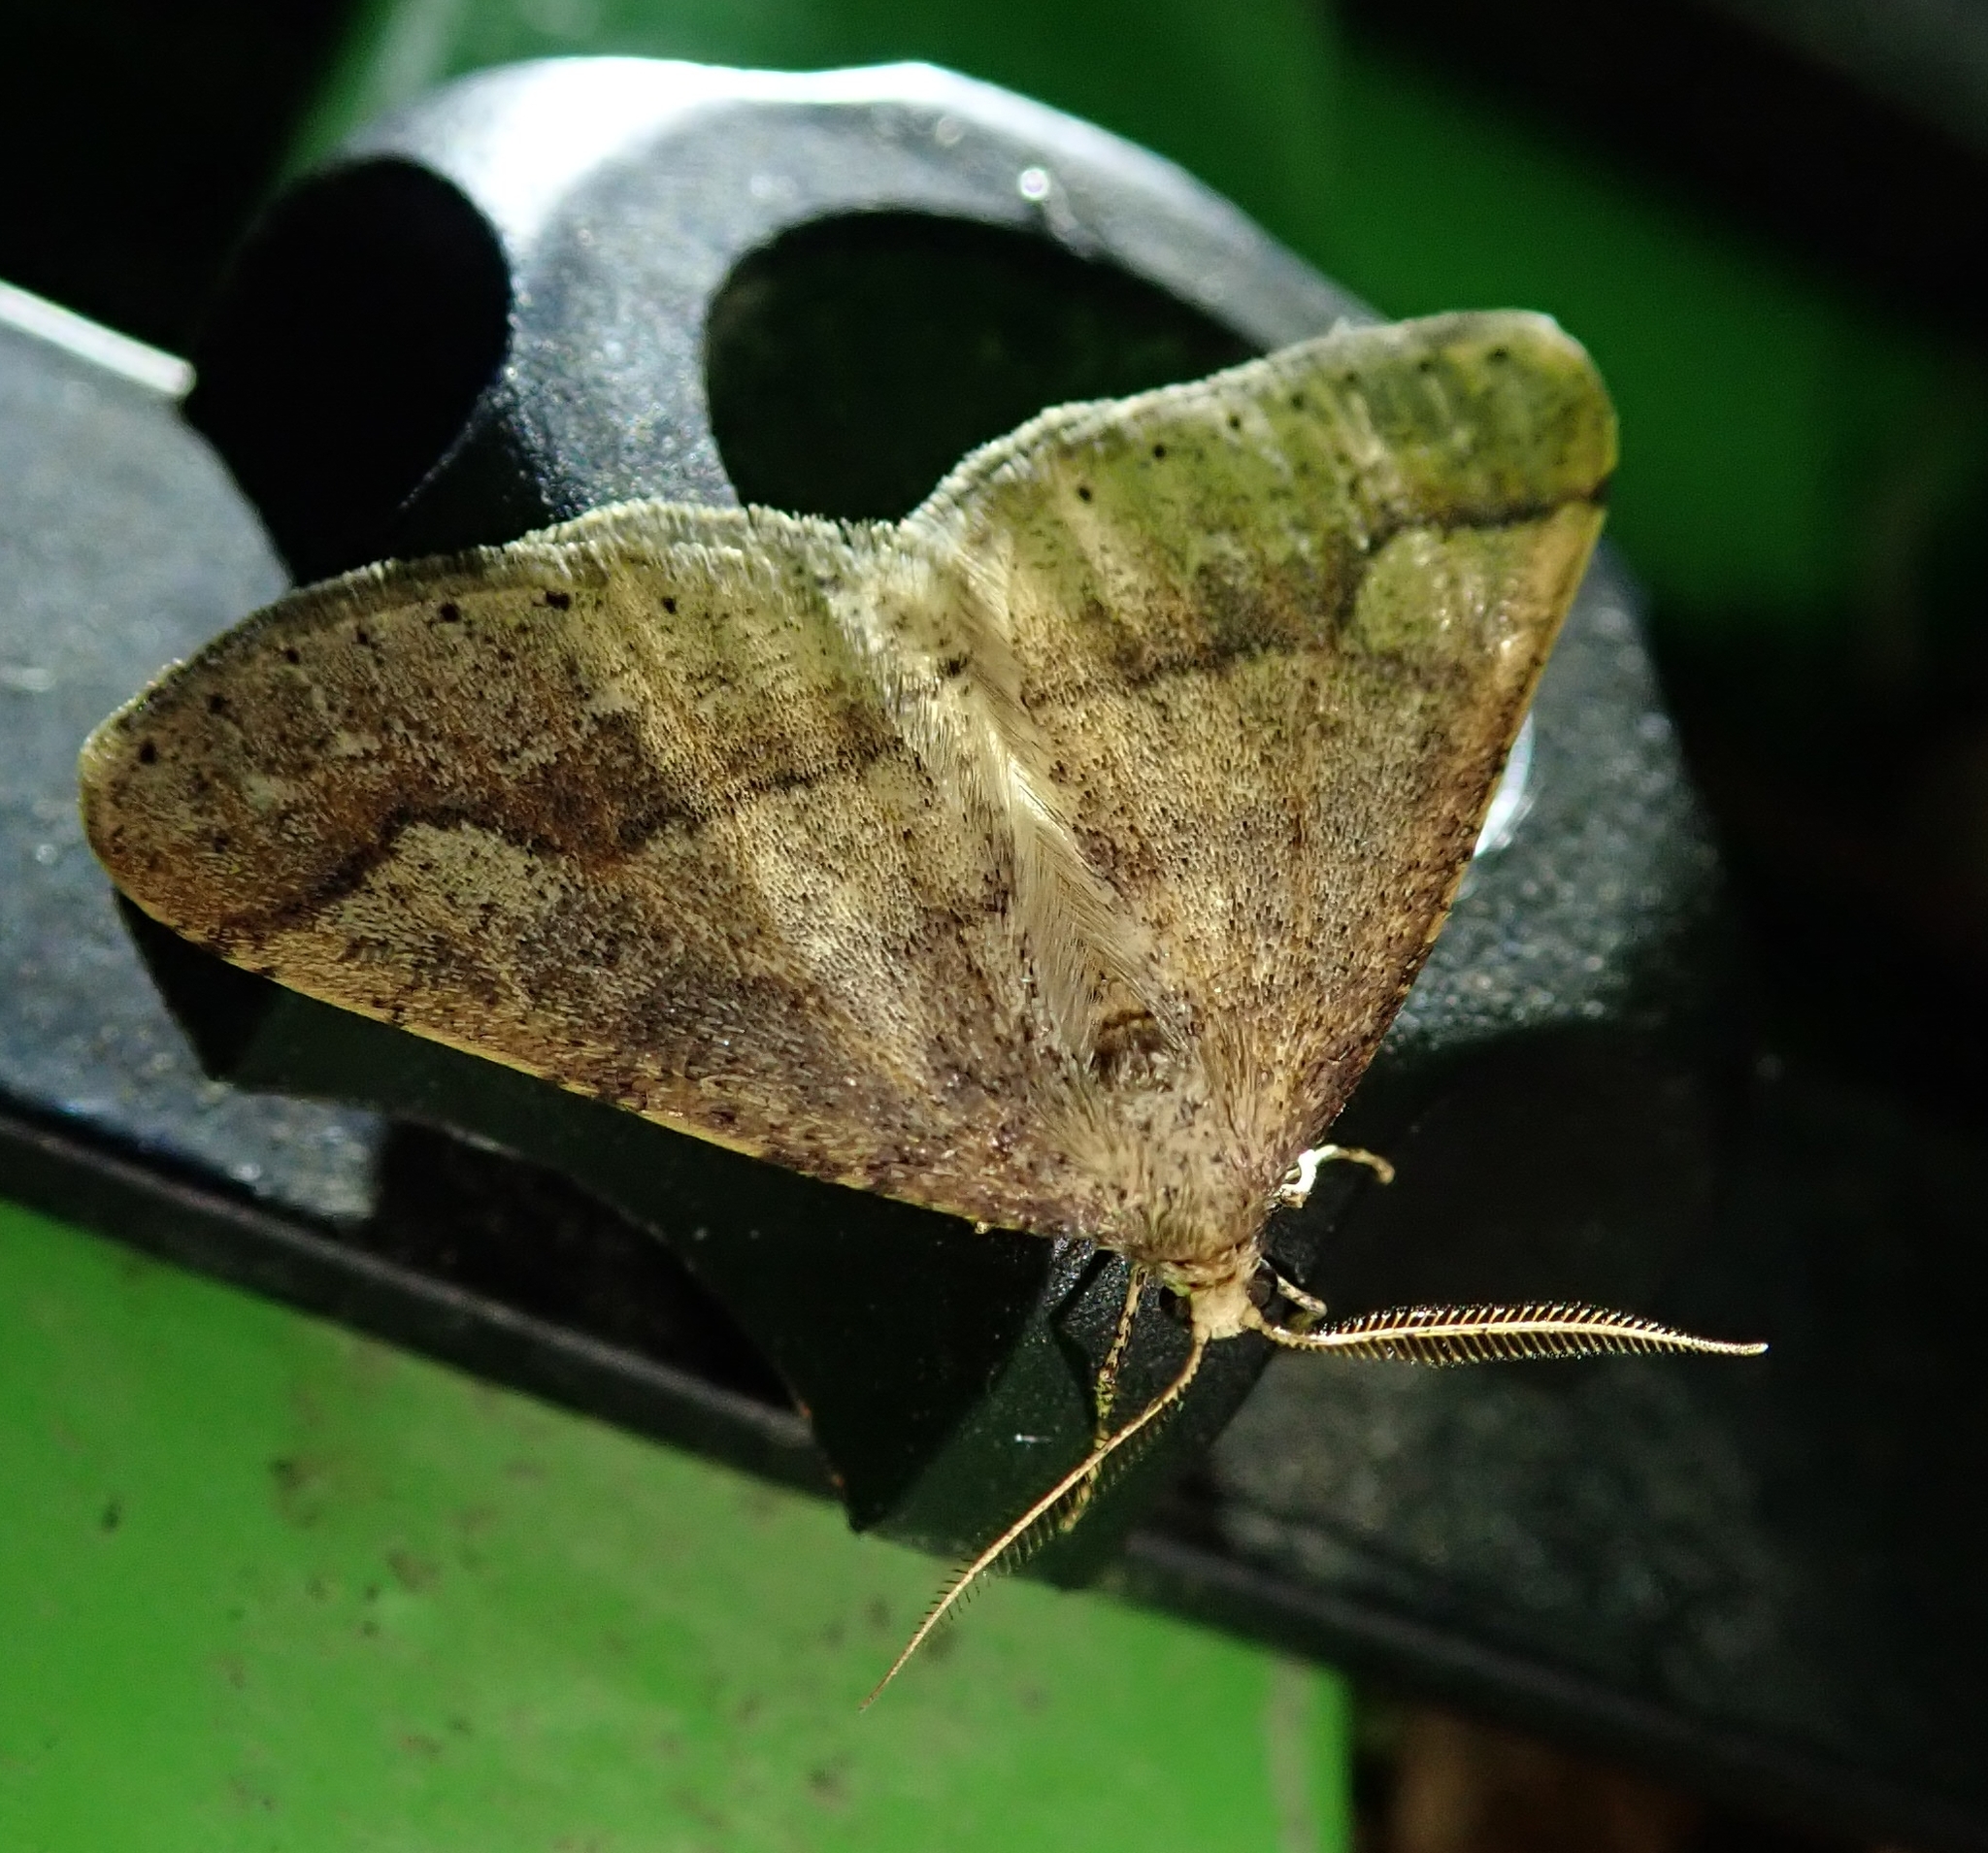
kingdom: Animalia
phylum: Arthropoda
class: Insecta
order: Lepidoptera
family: Geometridae
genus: Agriopis
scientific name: Agriopis marginaria
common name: Dotted border
